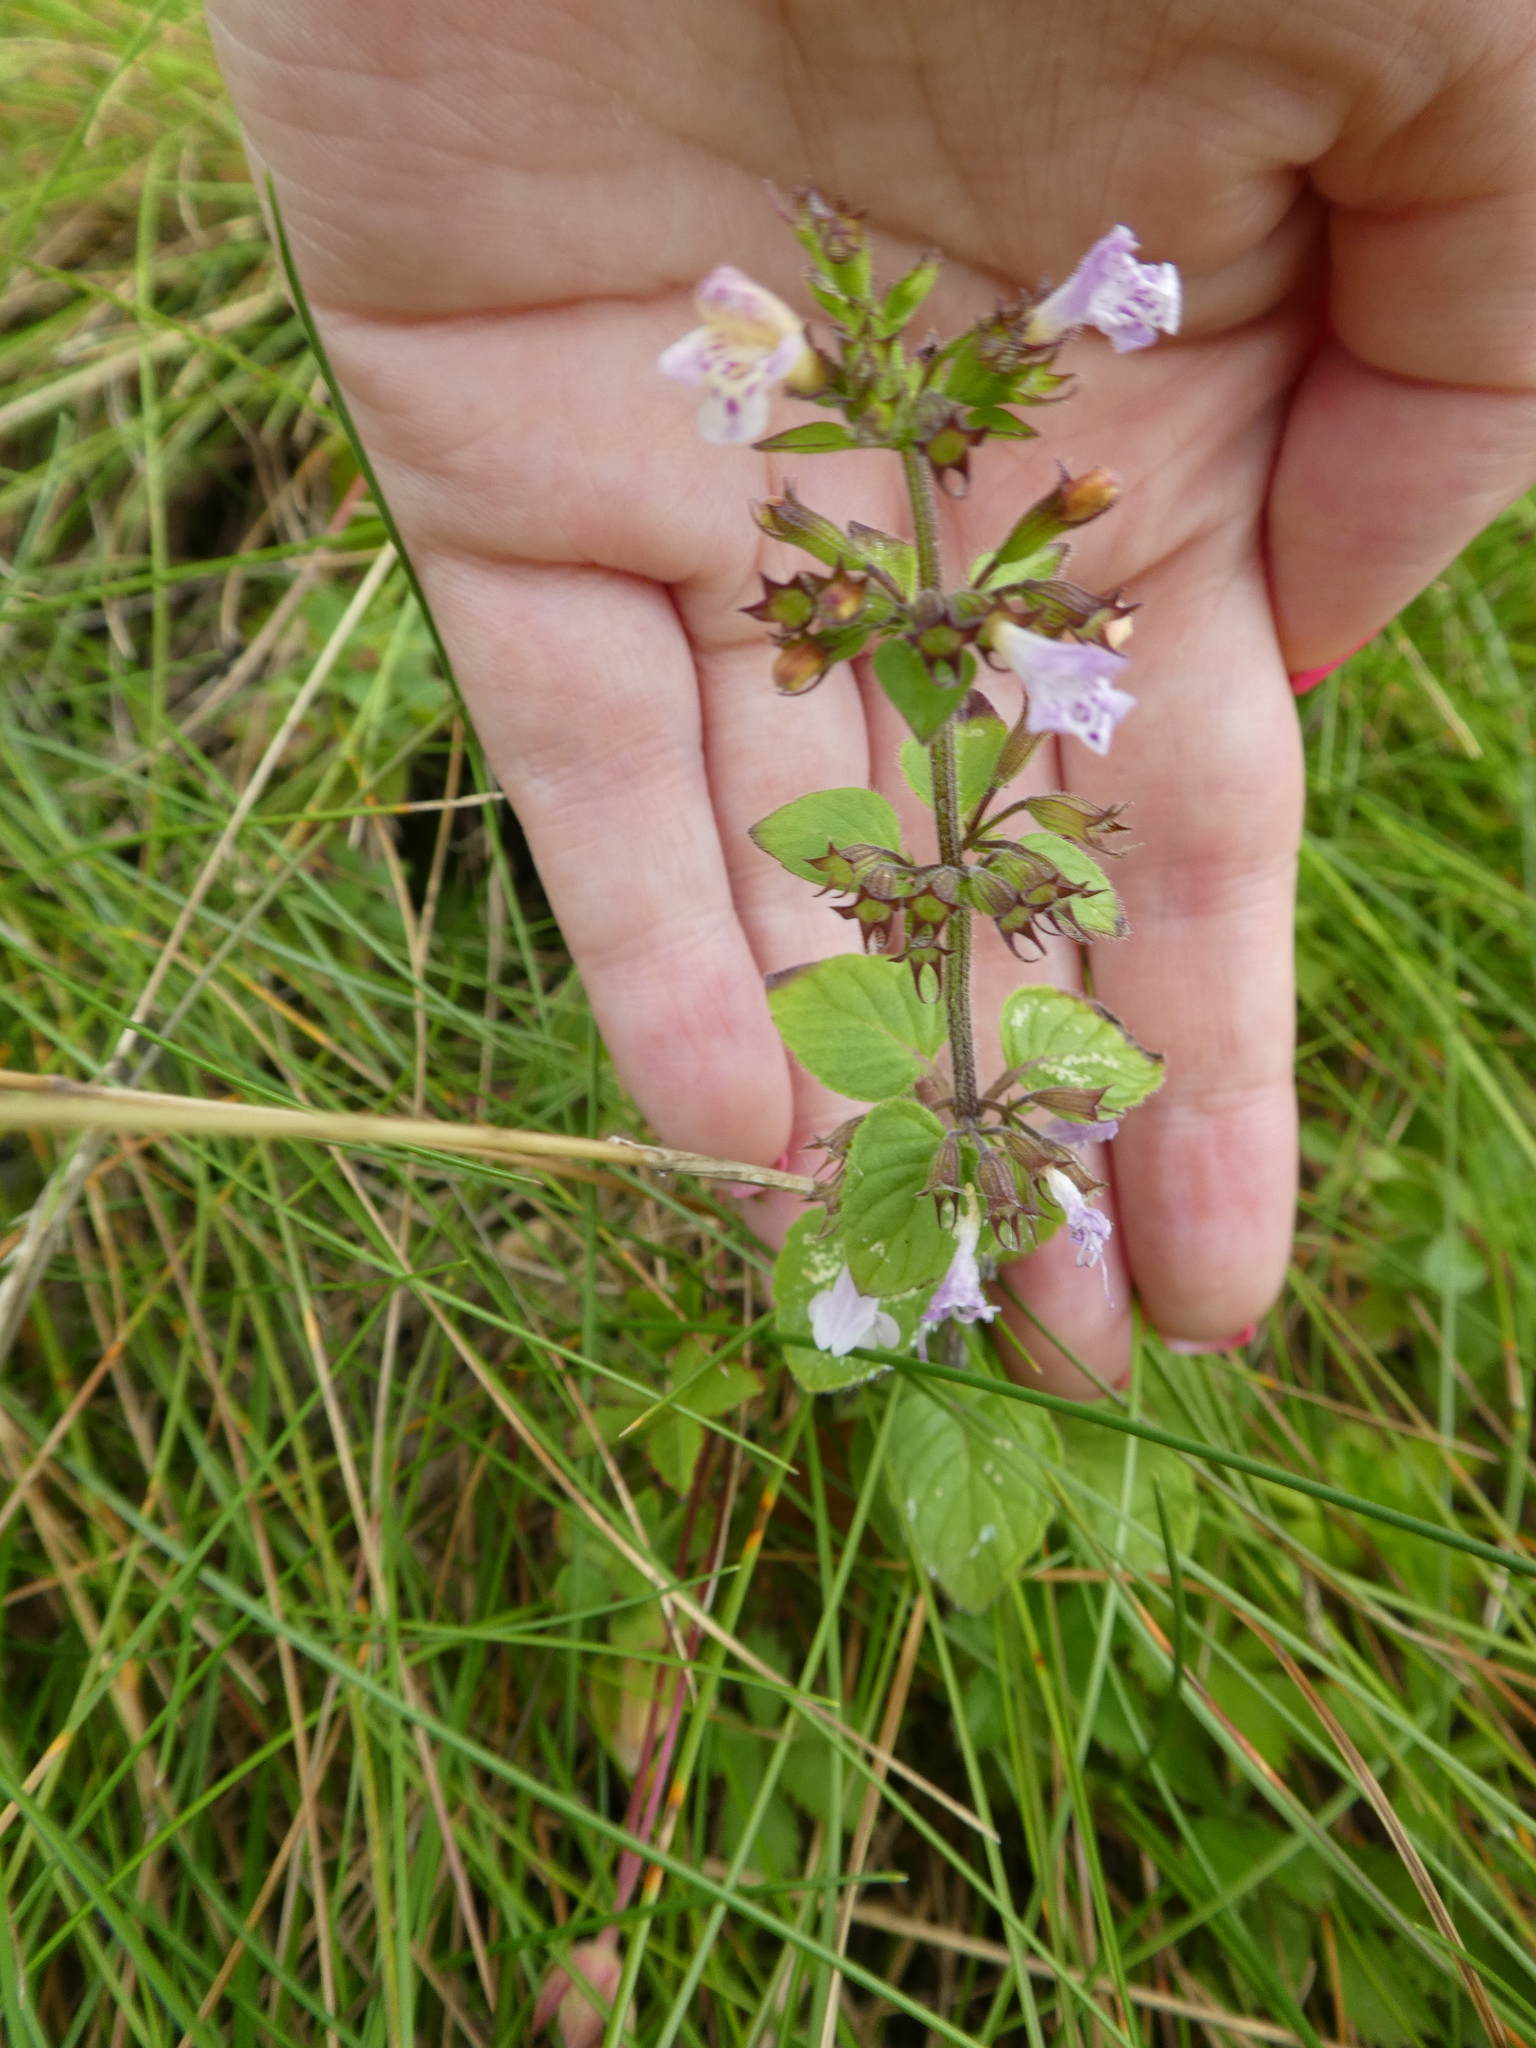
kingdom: Plantae
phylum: Tracheophyta
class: Magnoliopsida
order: Lamiales
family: Lamiaceae
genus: Clinopodium
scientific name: Clinopodium menthifolium
